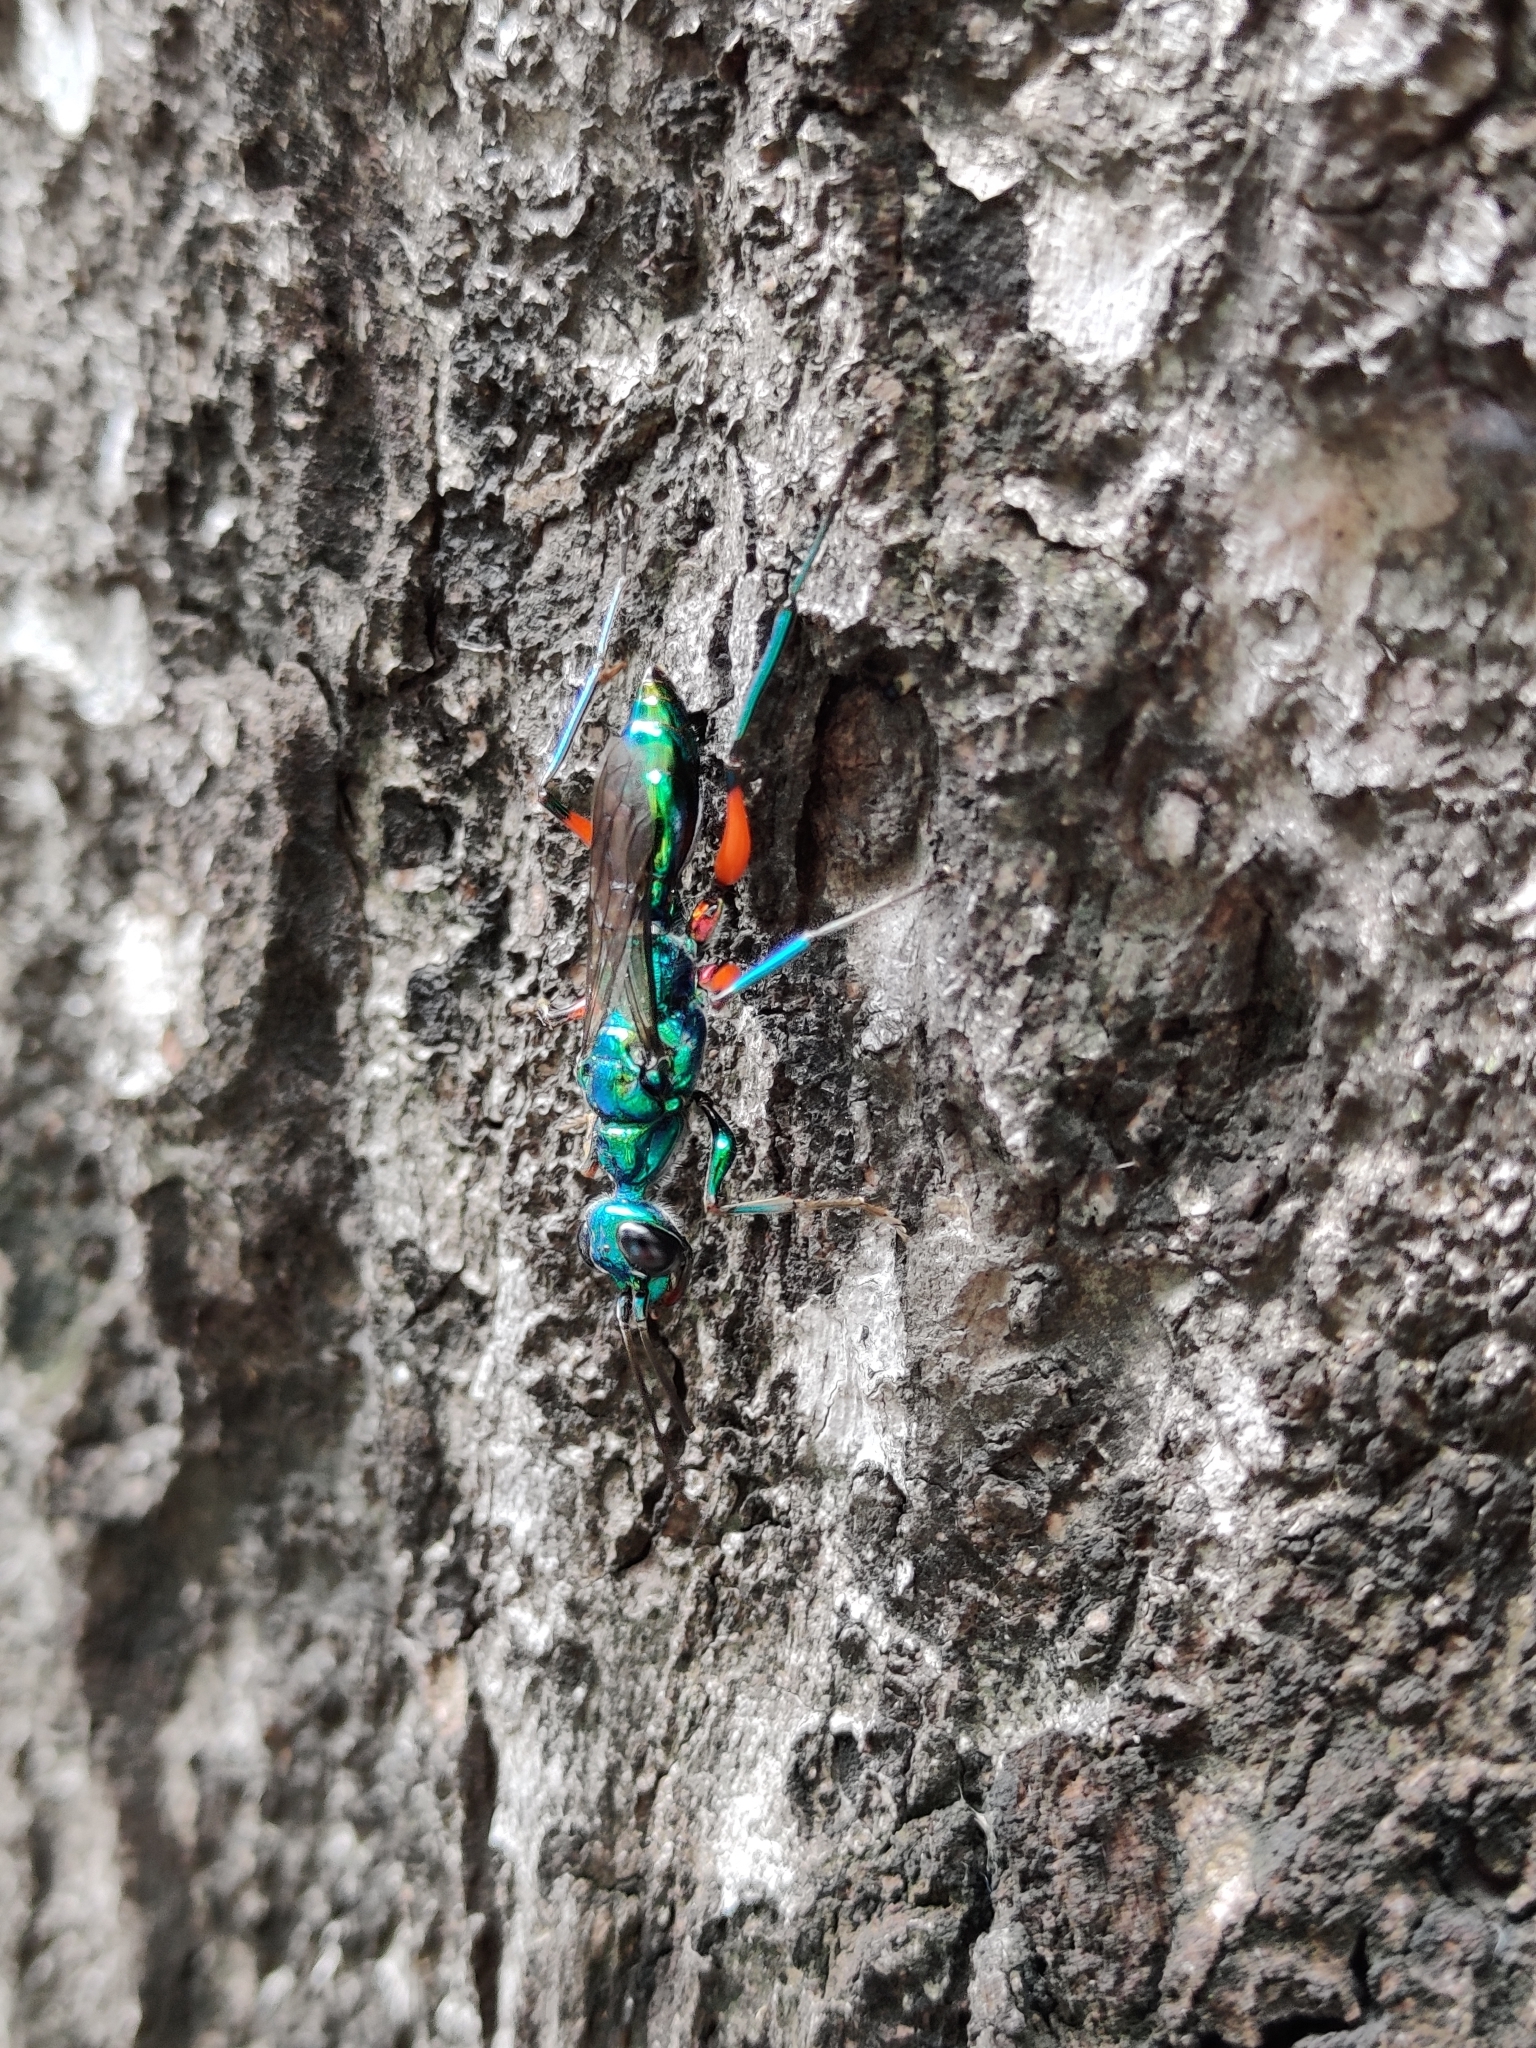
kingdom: Animalia
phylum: Arthropoda
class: Insecta
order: Hymenoptera
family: Ampulicidae
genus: Ampulex
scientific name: Ampulex compressa
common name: Emerald cockroach wasp
